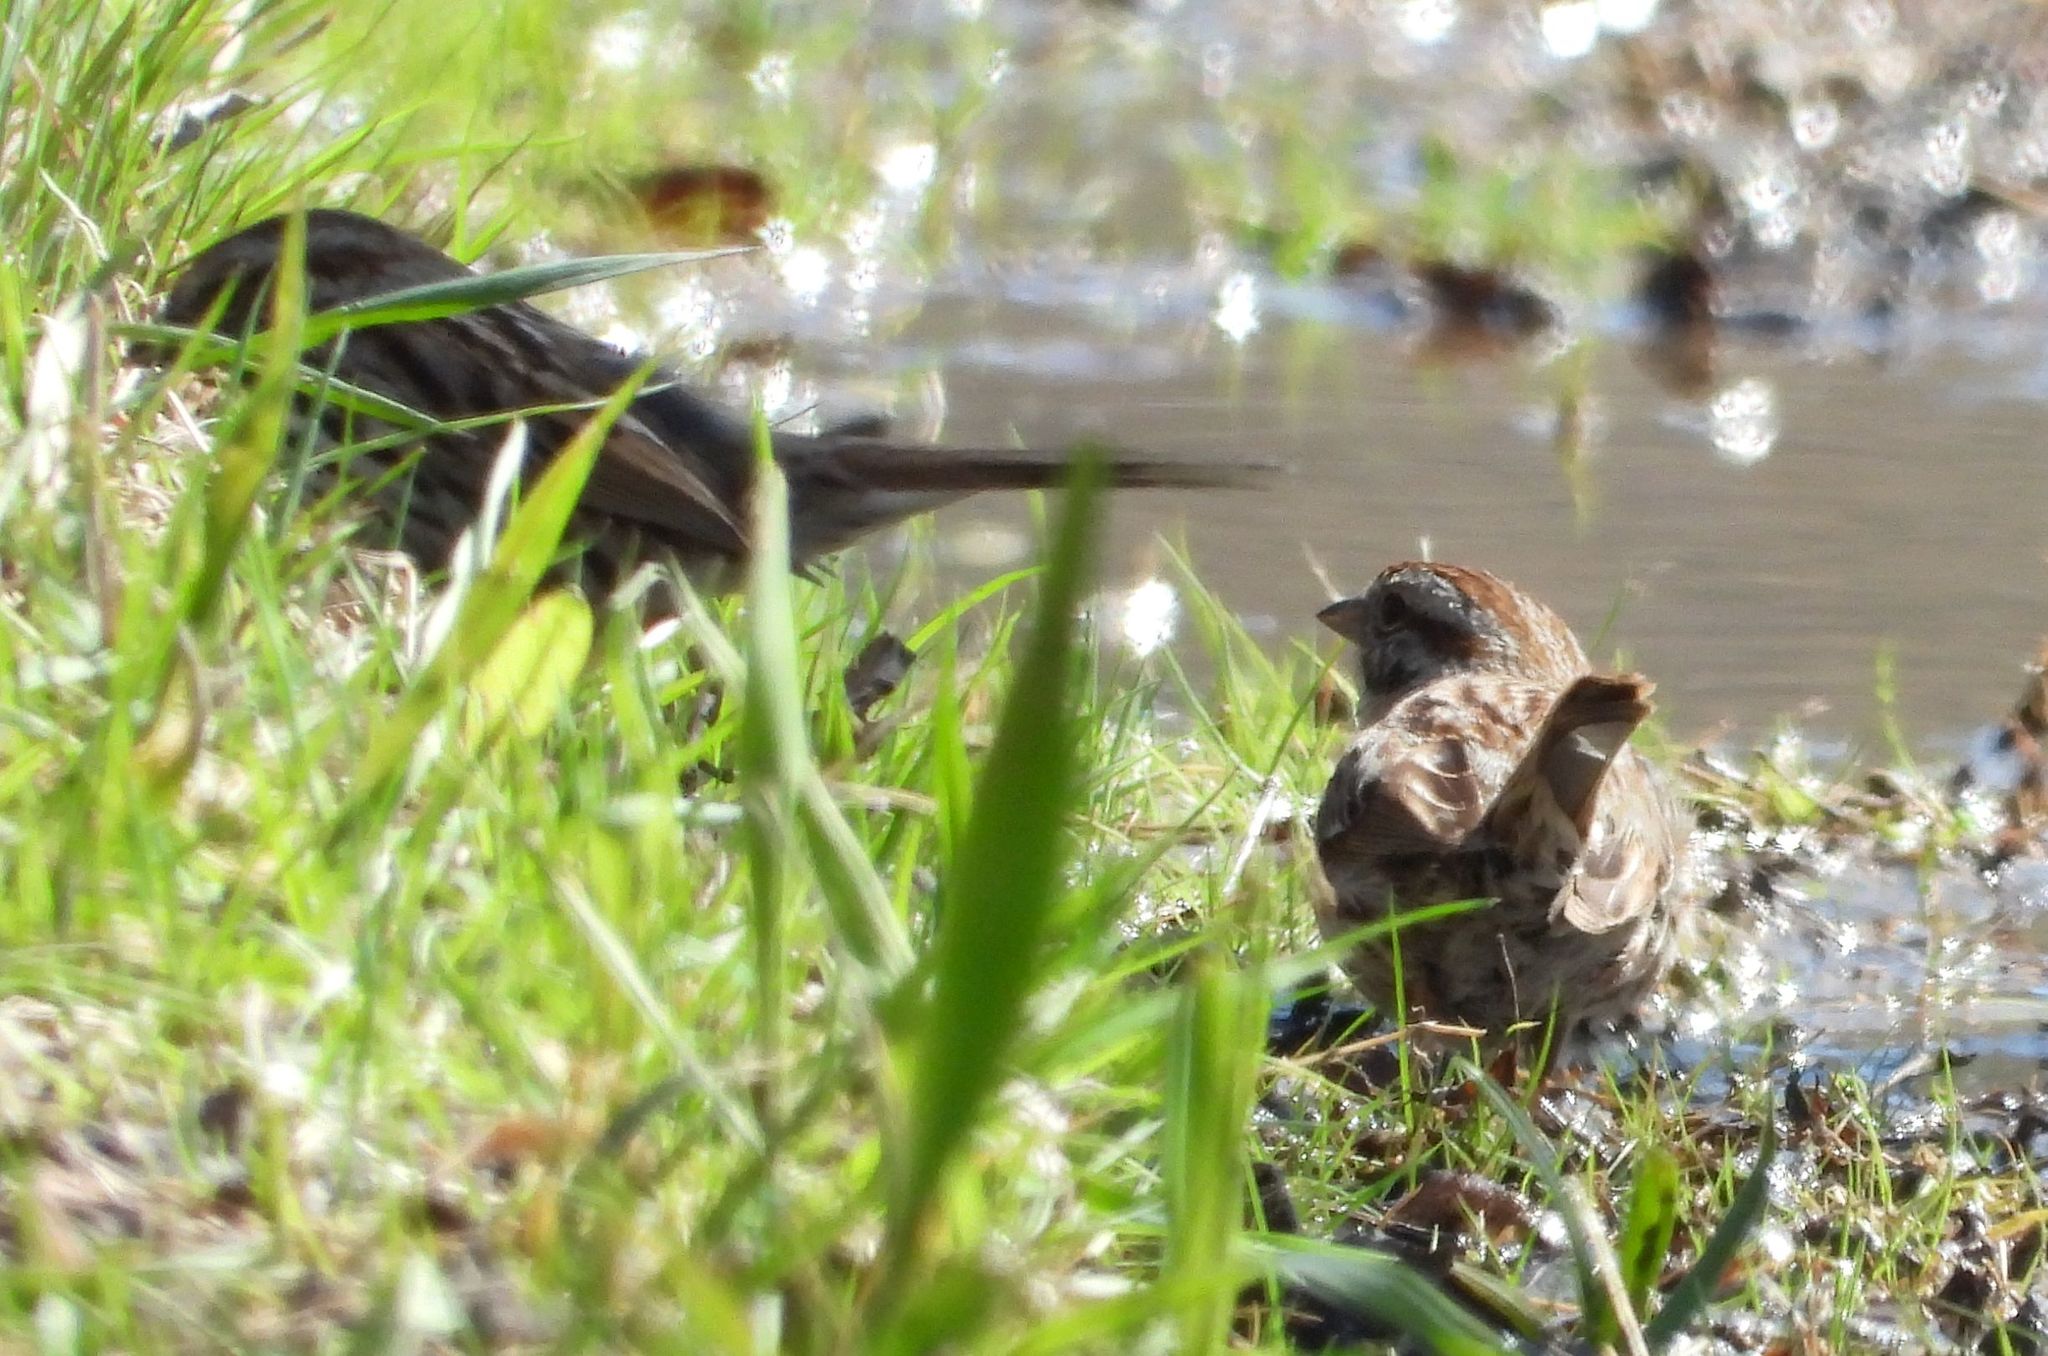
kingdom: Animalia
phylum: Chordata
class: Aves
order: Passeriformes
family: Passerellidae
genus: Melospiza
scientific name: Melospiza melodia
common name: Song sparrow
